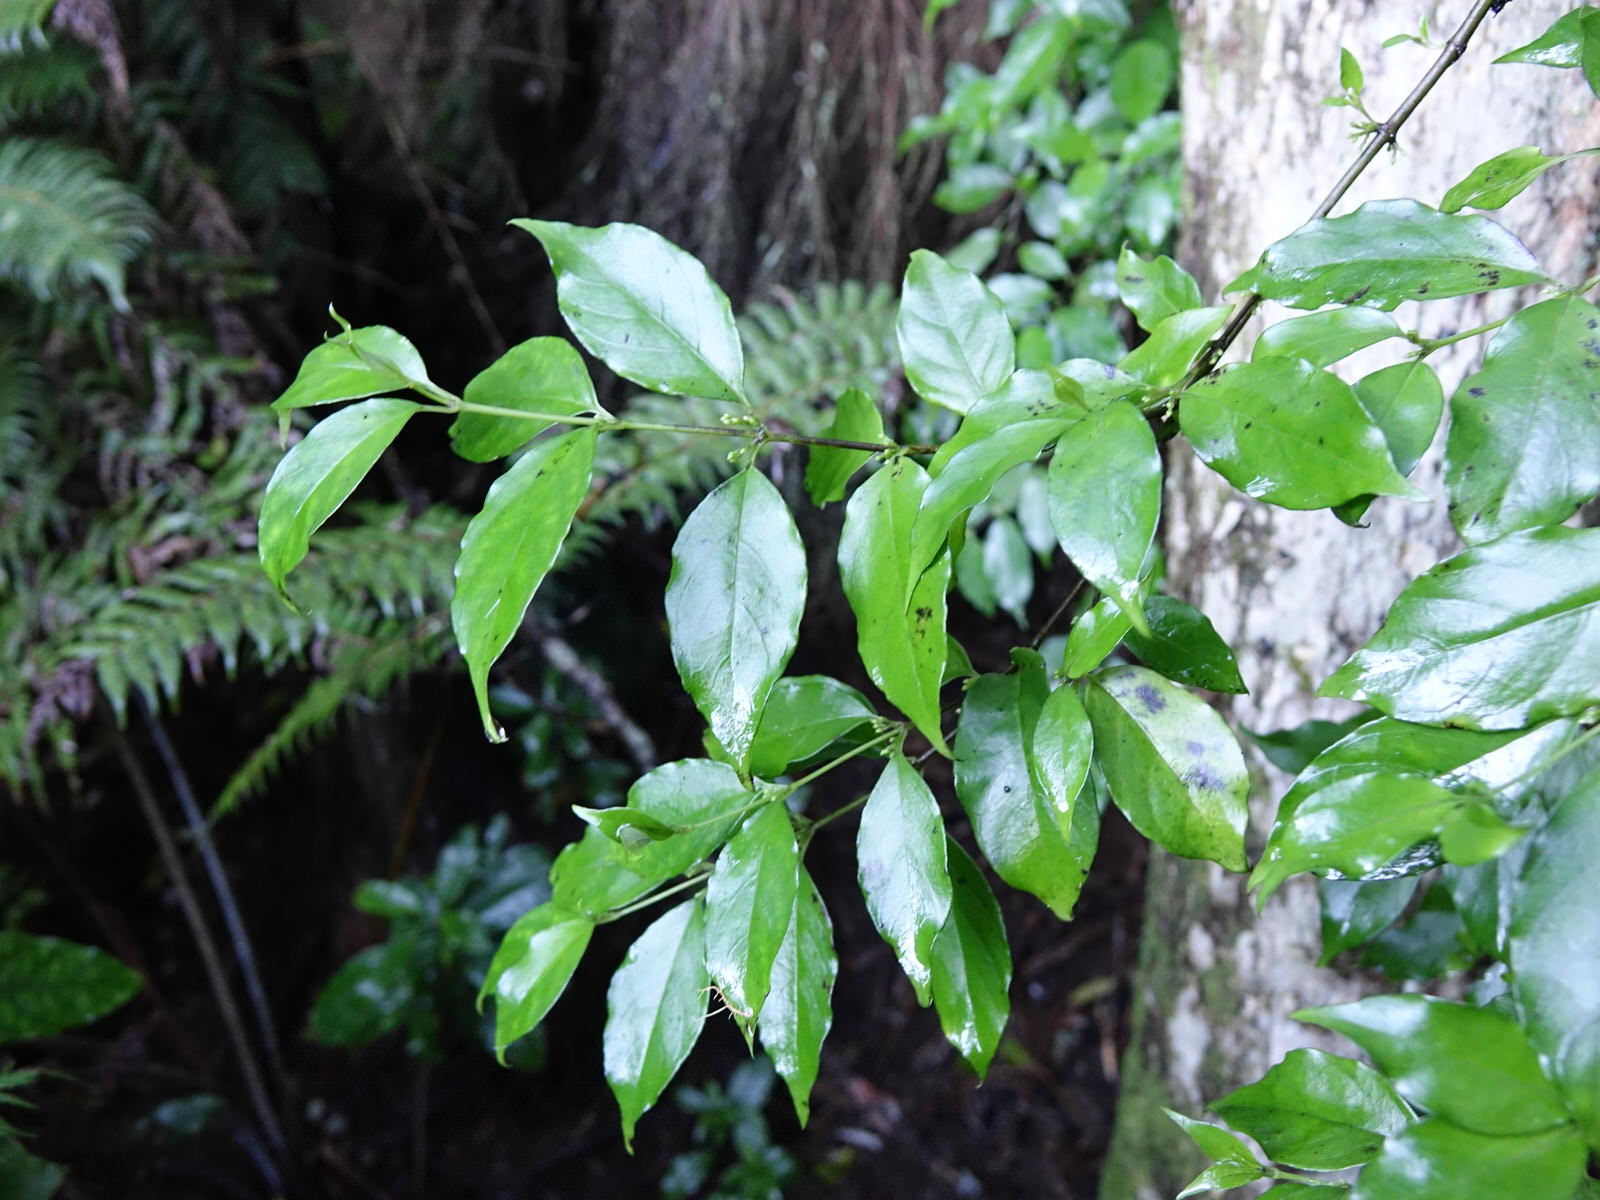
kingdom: Plantae
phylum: Tracheophyta
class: Magnoliopsida
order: Gentianales
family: Loganiaceae
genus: Geniostoma
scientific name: Geniostoma ligustrifolium
